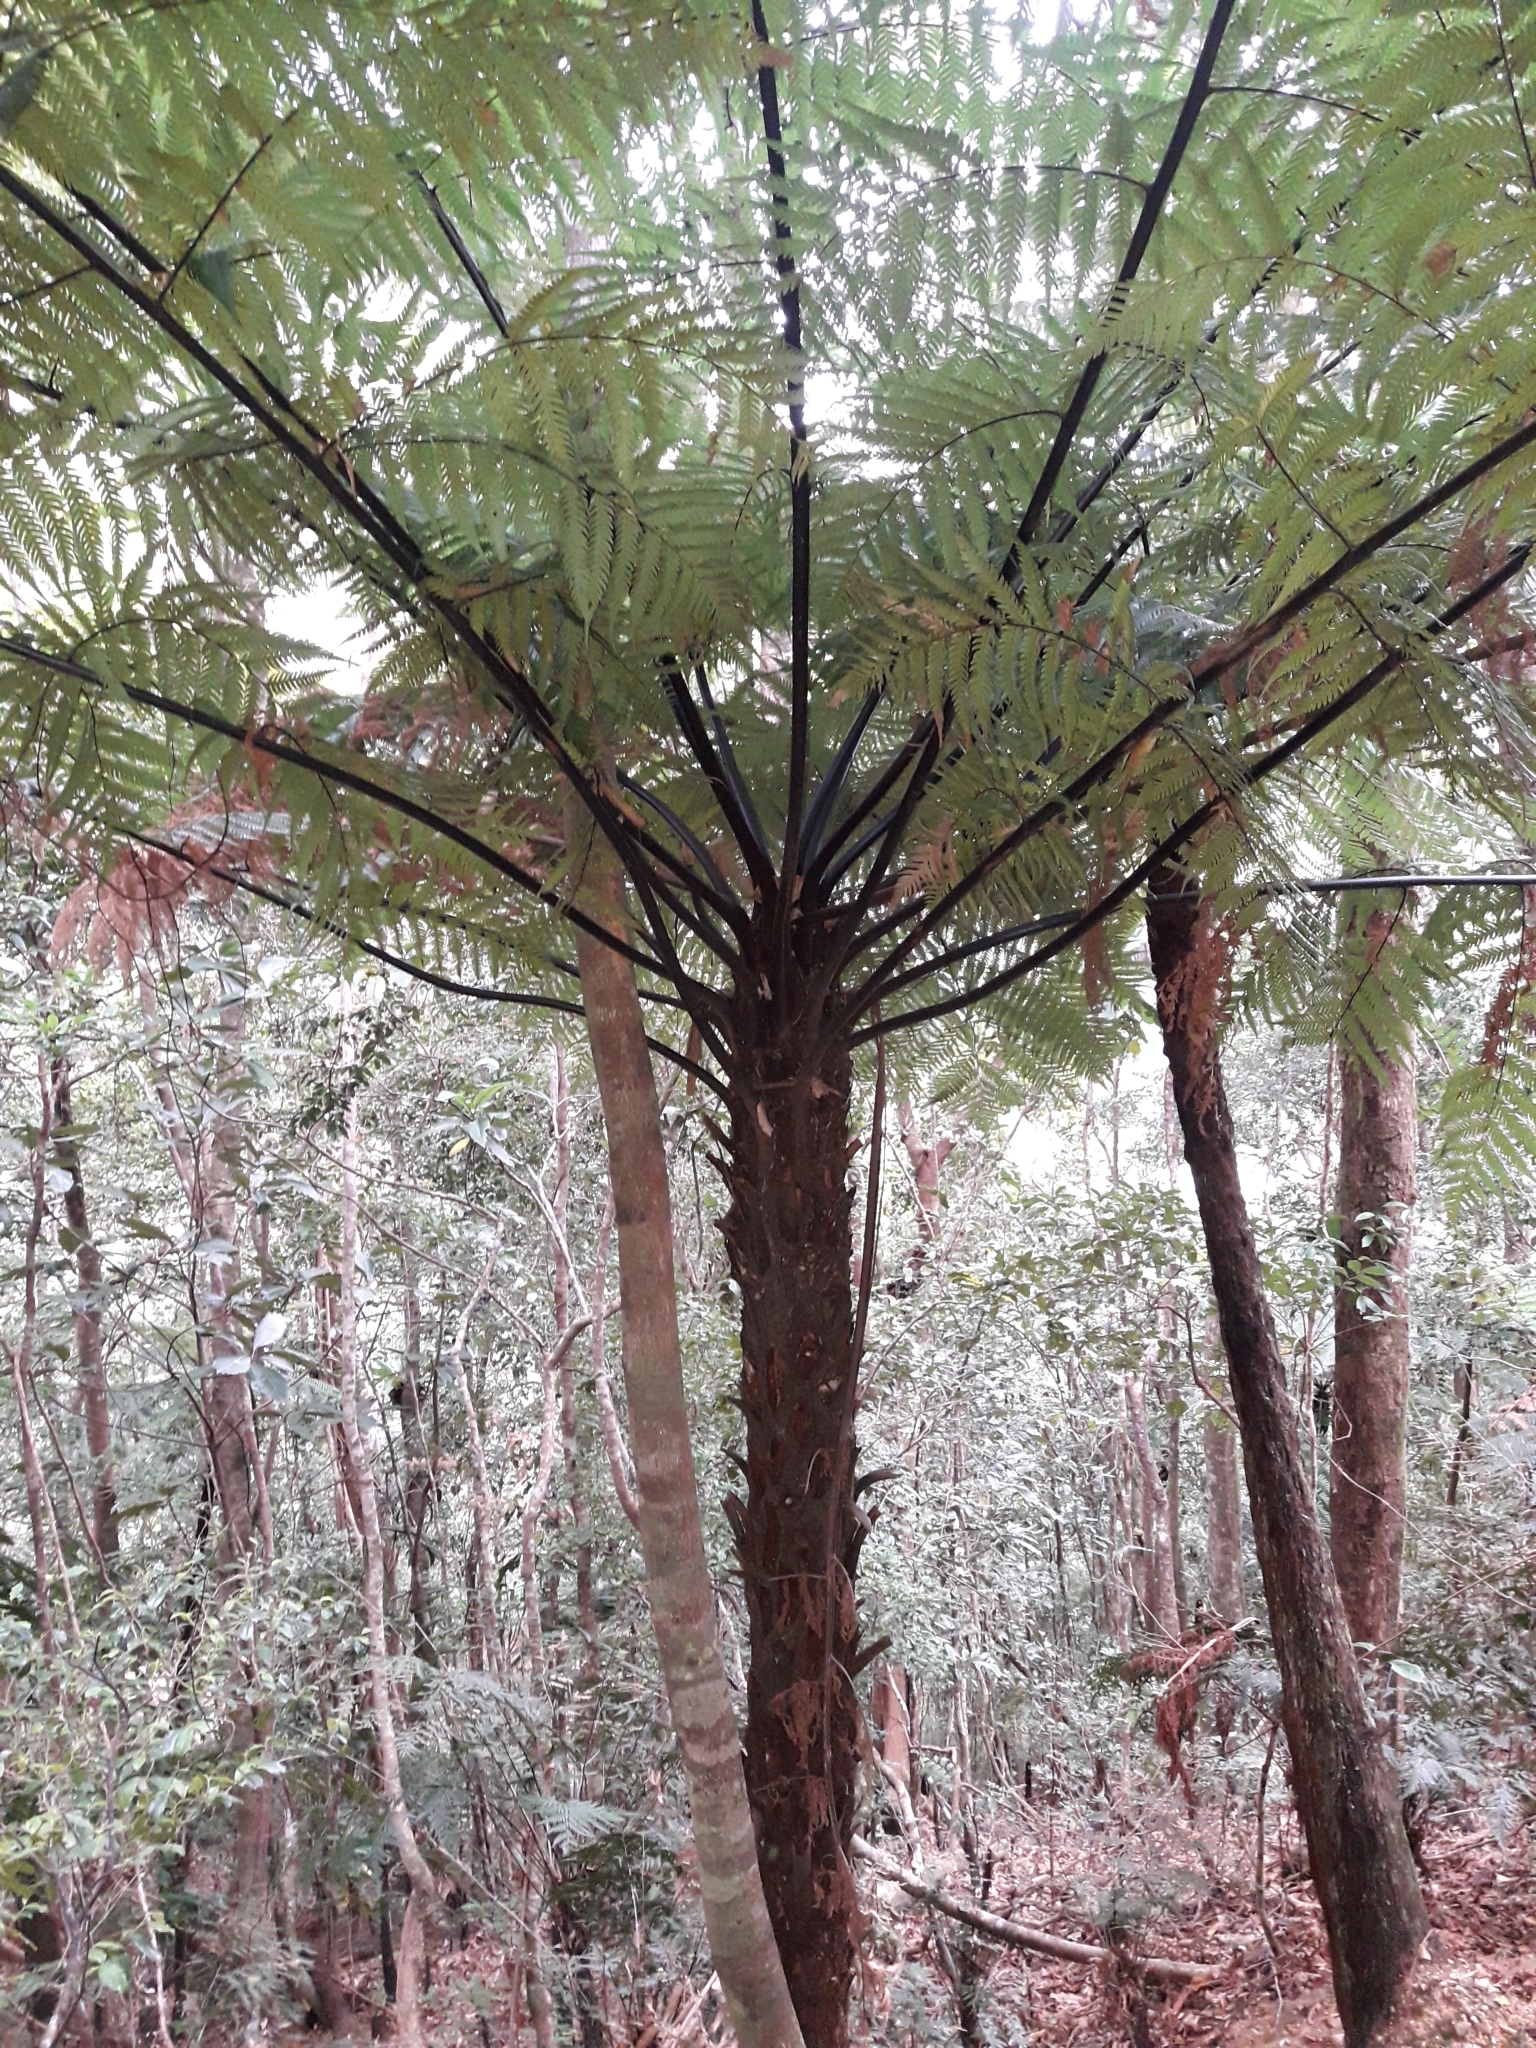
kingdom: Plantae
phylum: Tracheophyta
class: Polypodiopsida
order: Cyatheales
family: Dicksoniaceae
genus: Dicksonia
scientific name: Dicksonia thyrsopteroides
